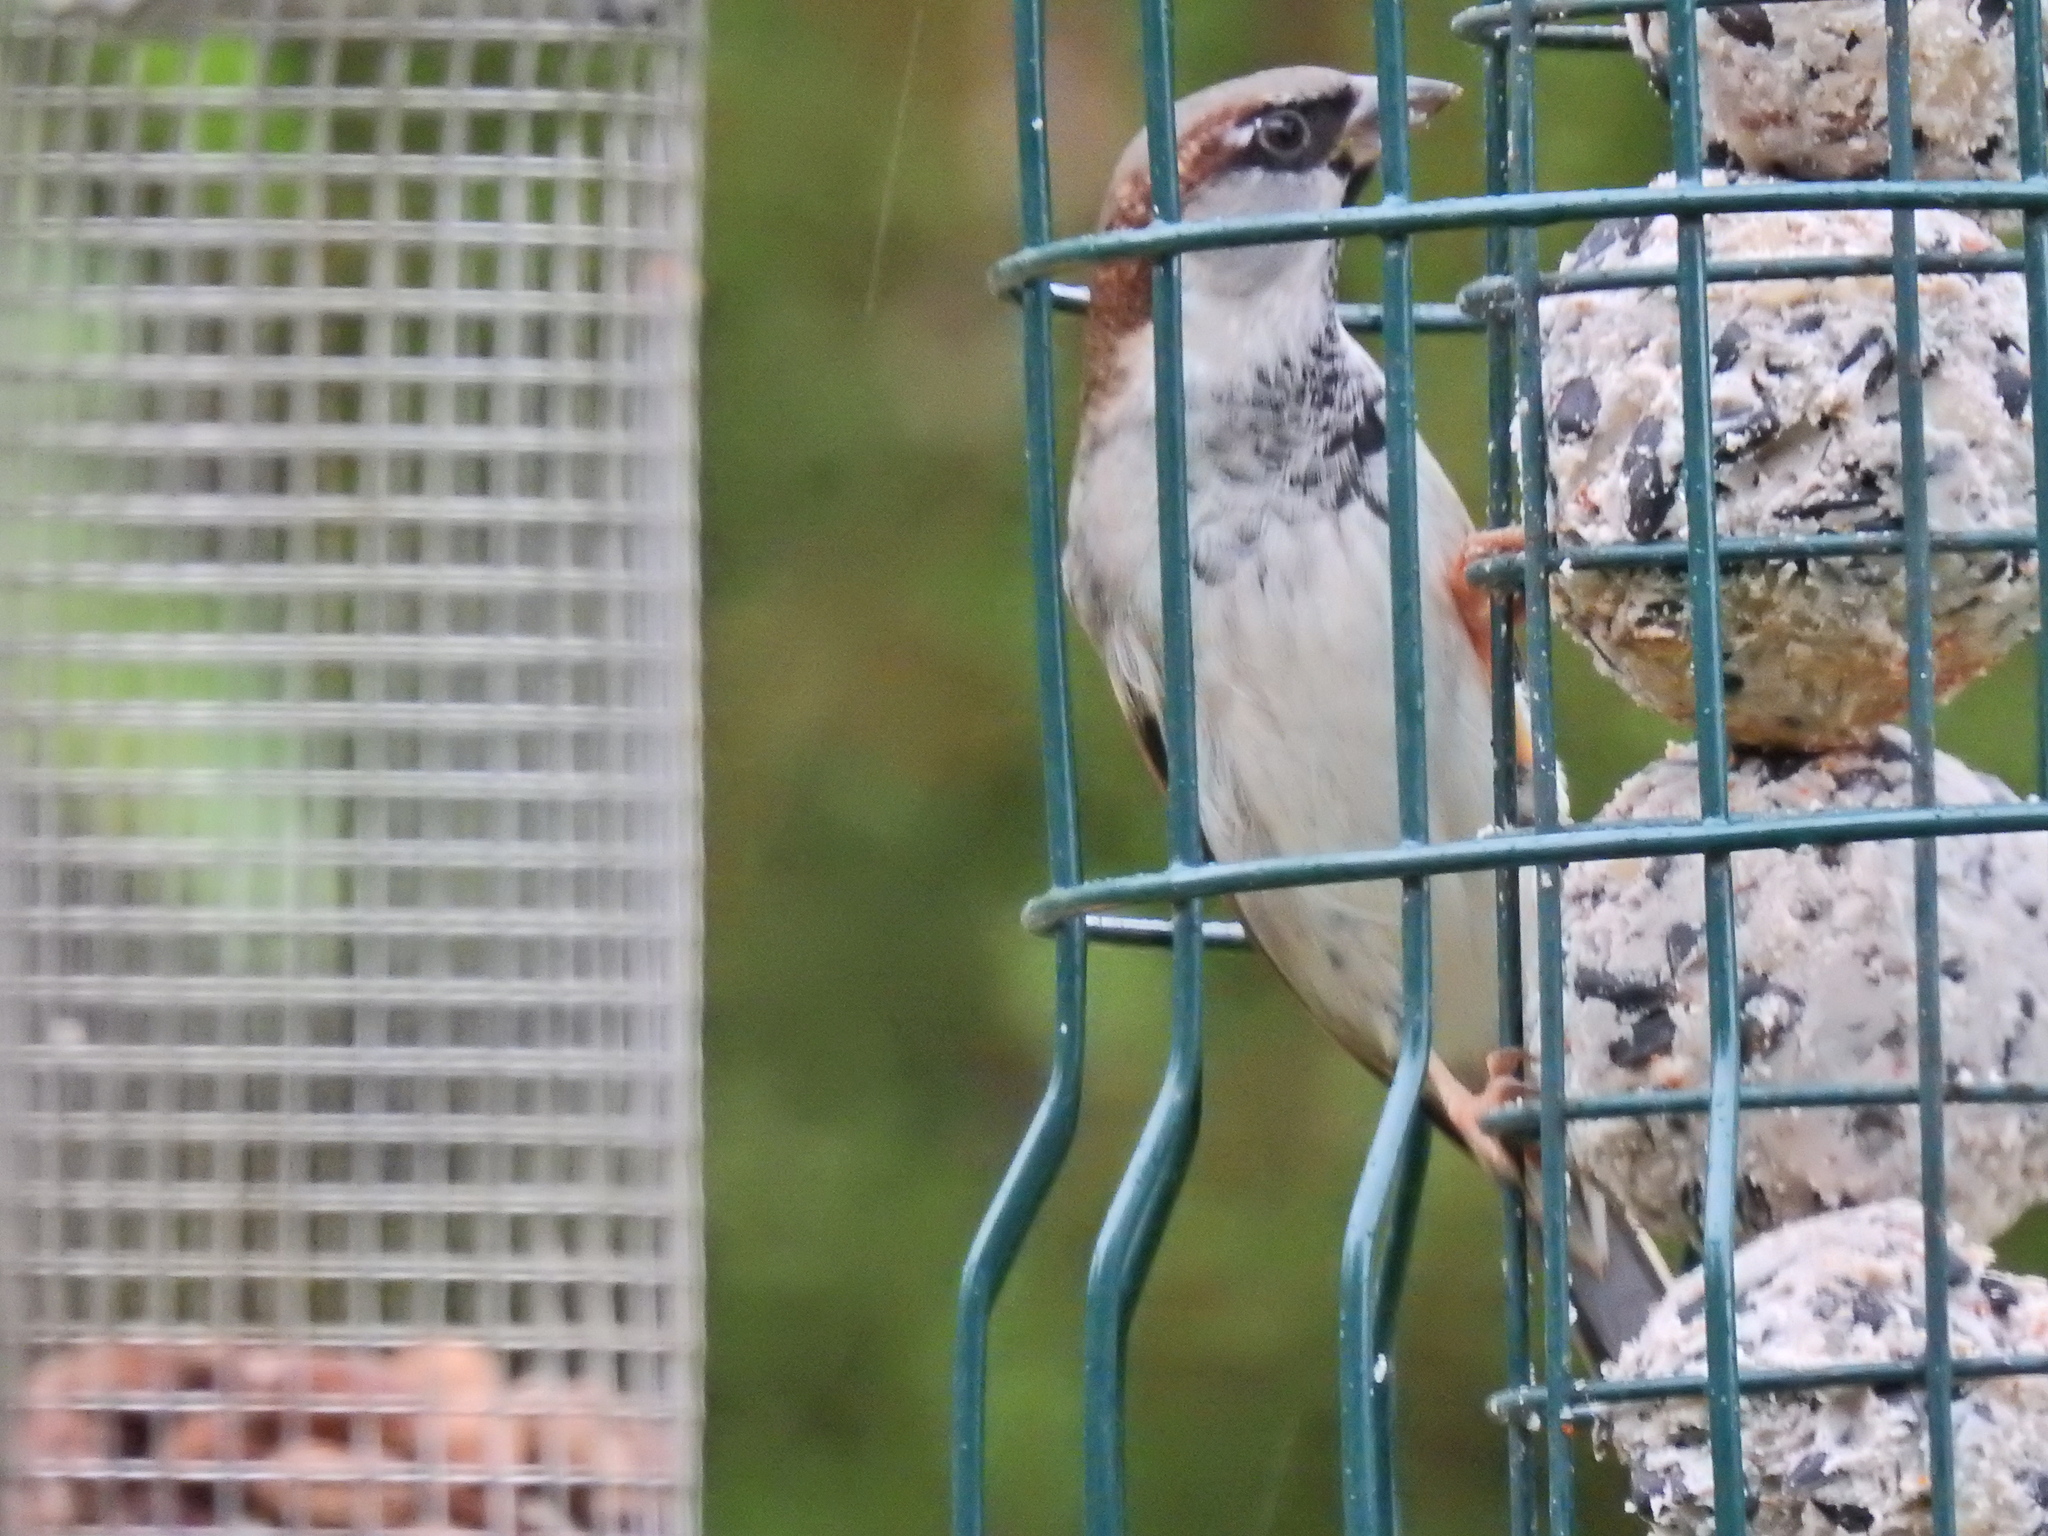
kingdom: Animalia
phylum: Chordata
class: Aves
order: Passeriformes
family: Passeridae
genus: Passer
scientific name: Passer domesticus
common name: House sparrow
